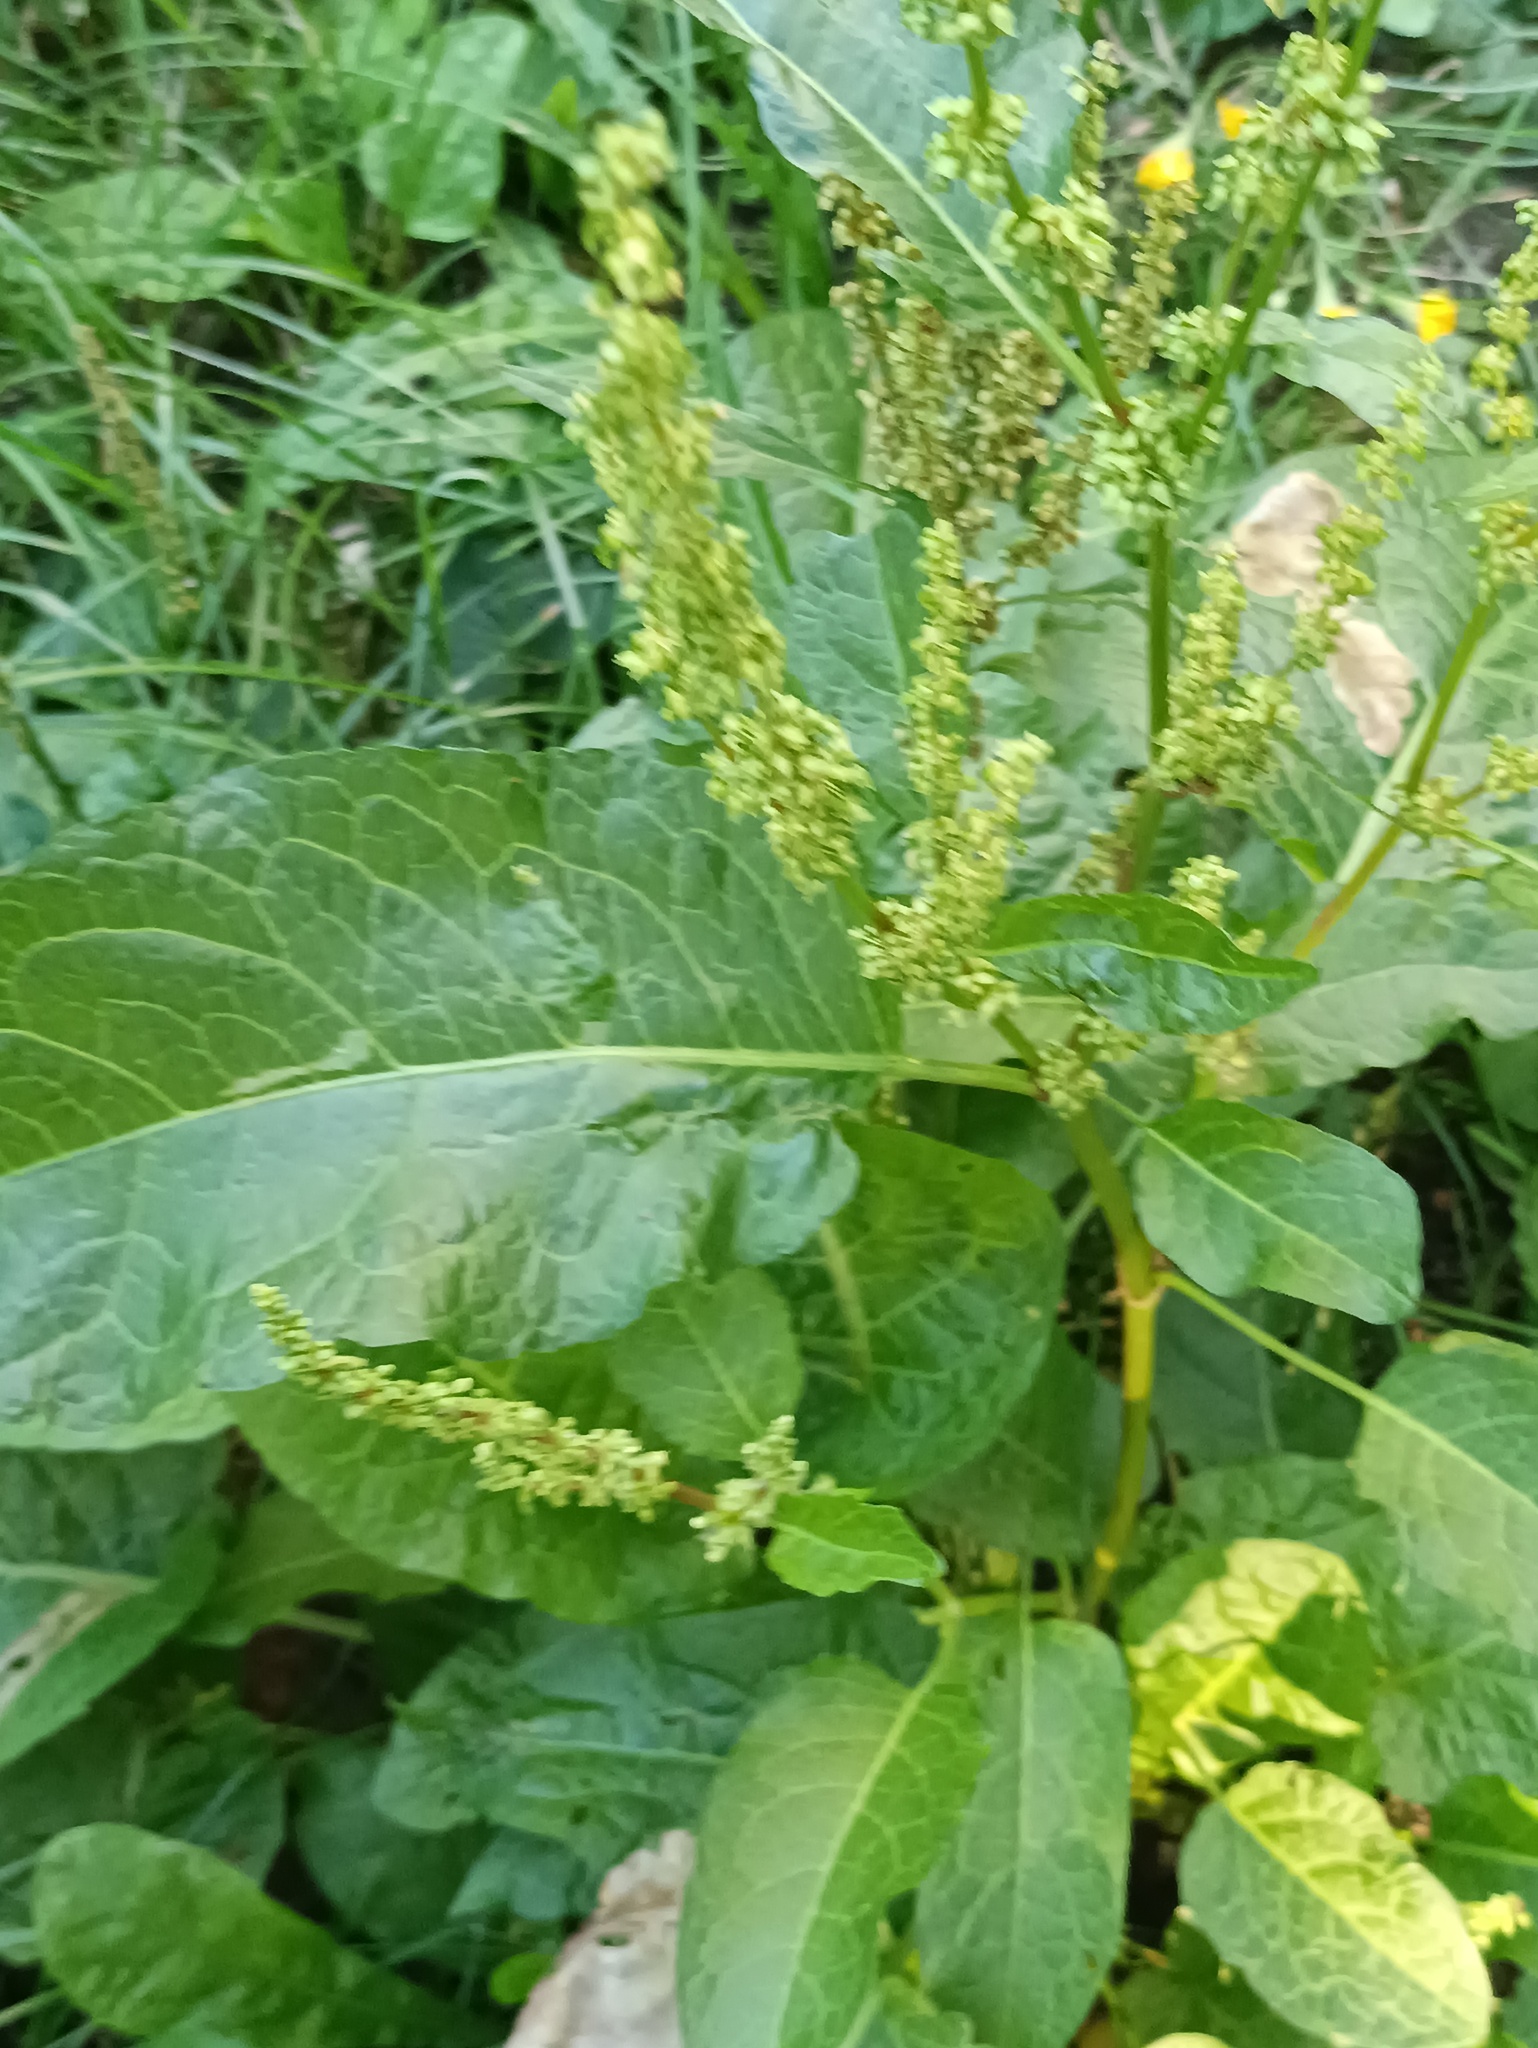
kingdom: Plantae
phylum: Tracheophyta
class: Magnoliopsida
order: Caryophyllales
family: Polygonaceae
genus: Rumex
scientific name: Rumex obtusifolius
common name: Bitter dock
